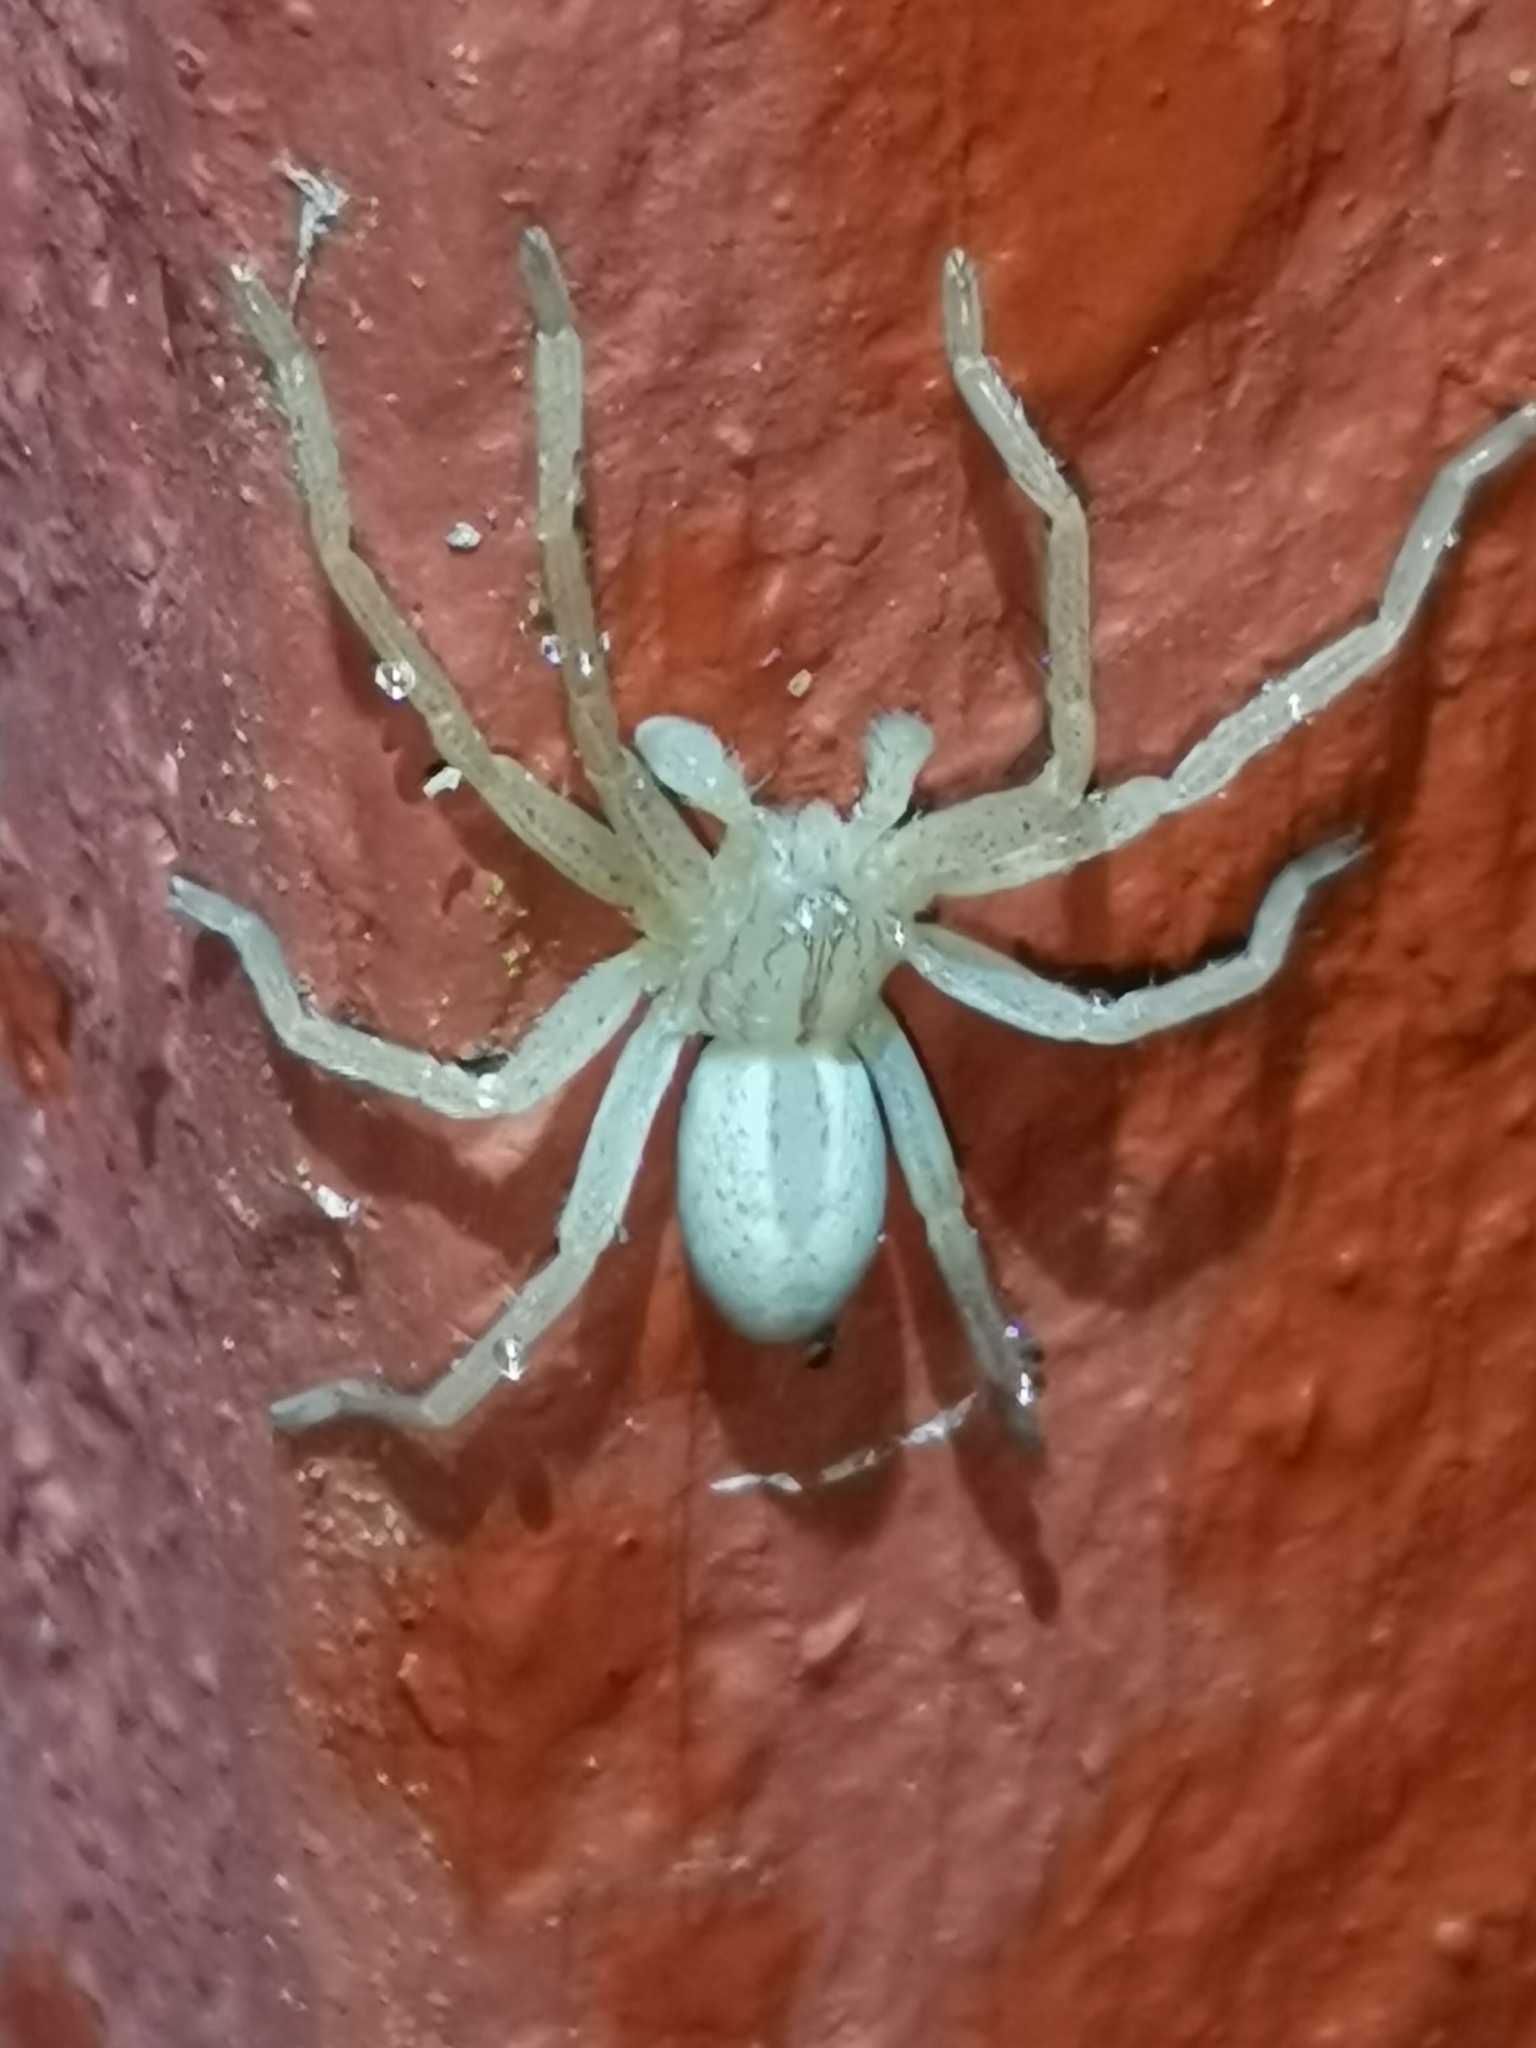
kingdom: Animalia
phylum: Arthropoda
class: Arachnida
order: Araneae
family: Sparassidae
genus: Micrommata
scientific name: Micrommata virescens
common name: Green spider
